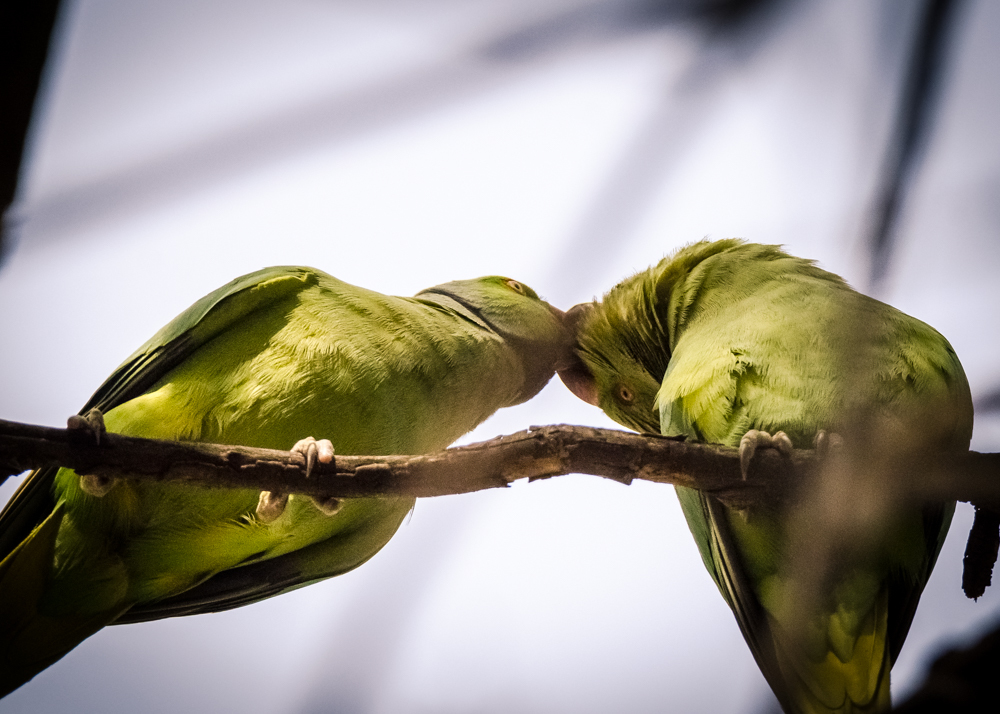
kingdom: Animalia
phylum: Chordata
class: Aves
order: Psittaciformes
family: Psittacidae
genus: Psittacula
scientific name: Psittacula krameri
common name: Rose-ringed parakeet
